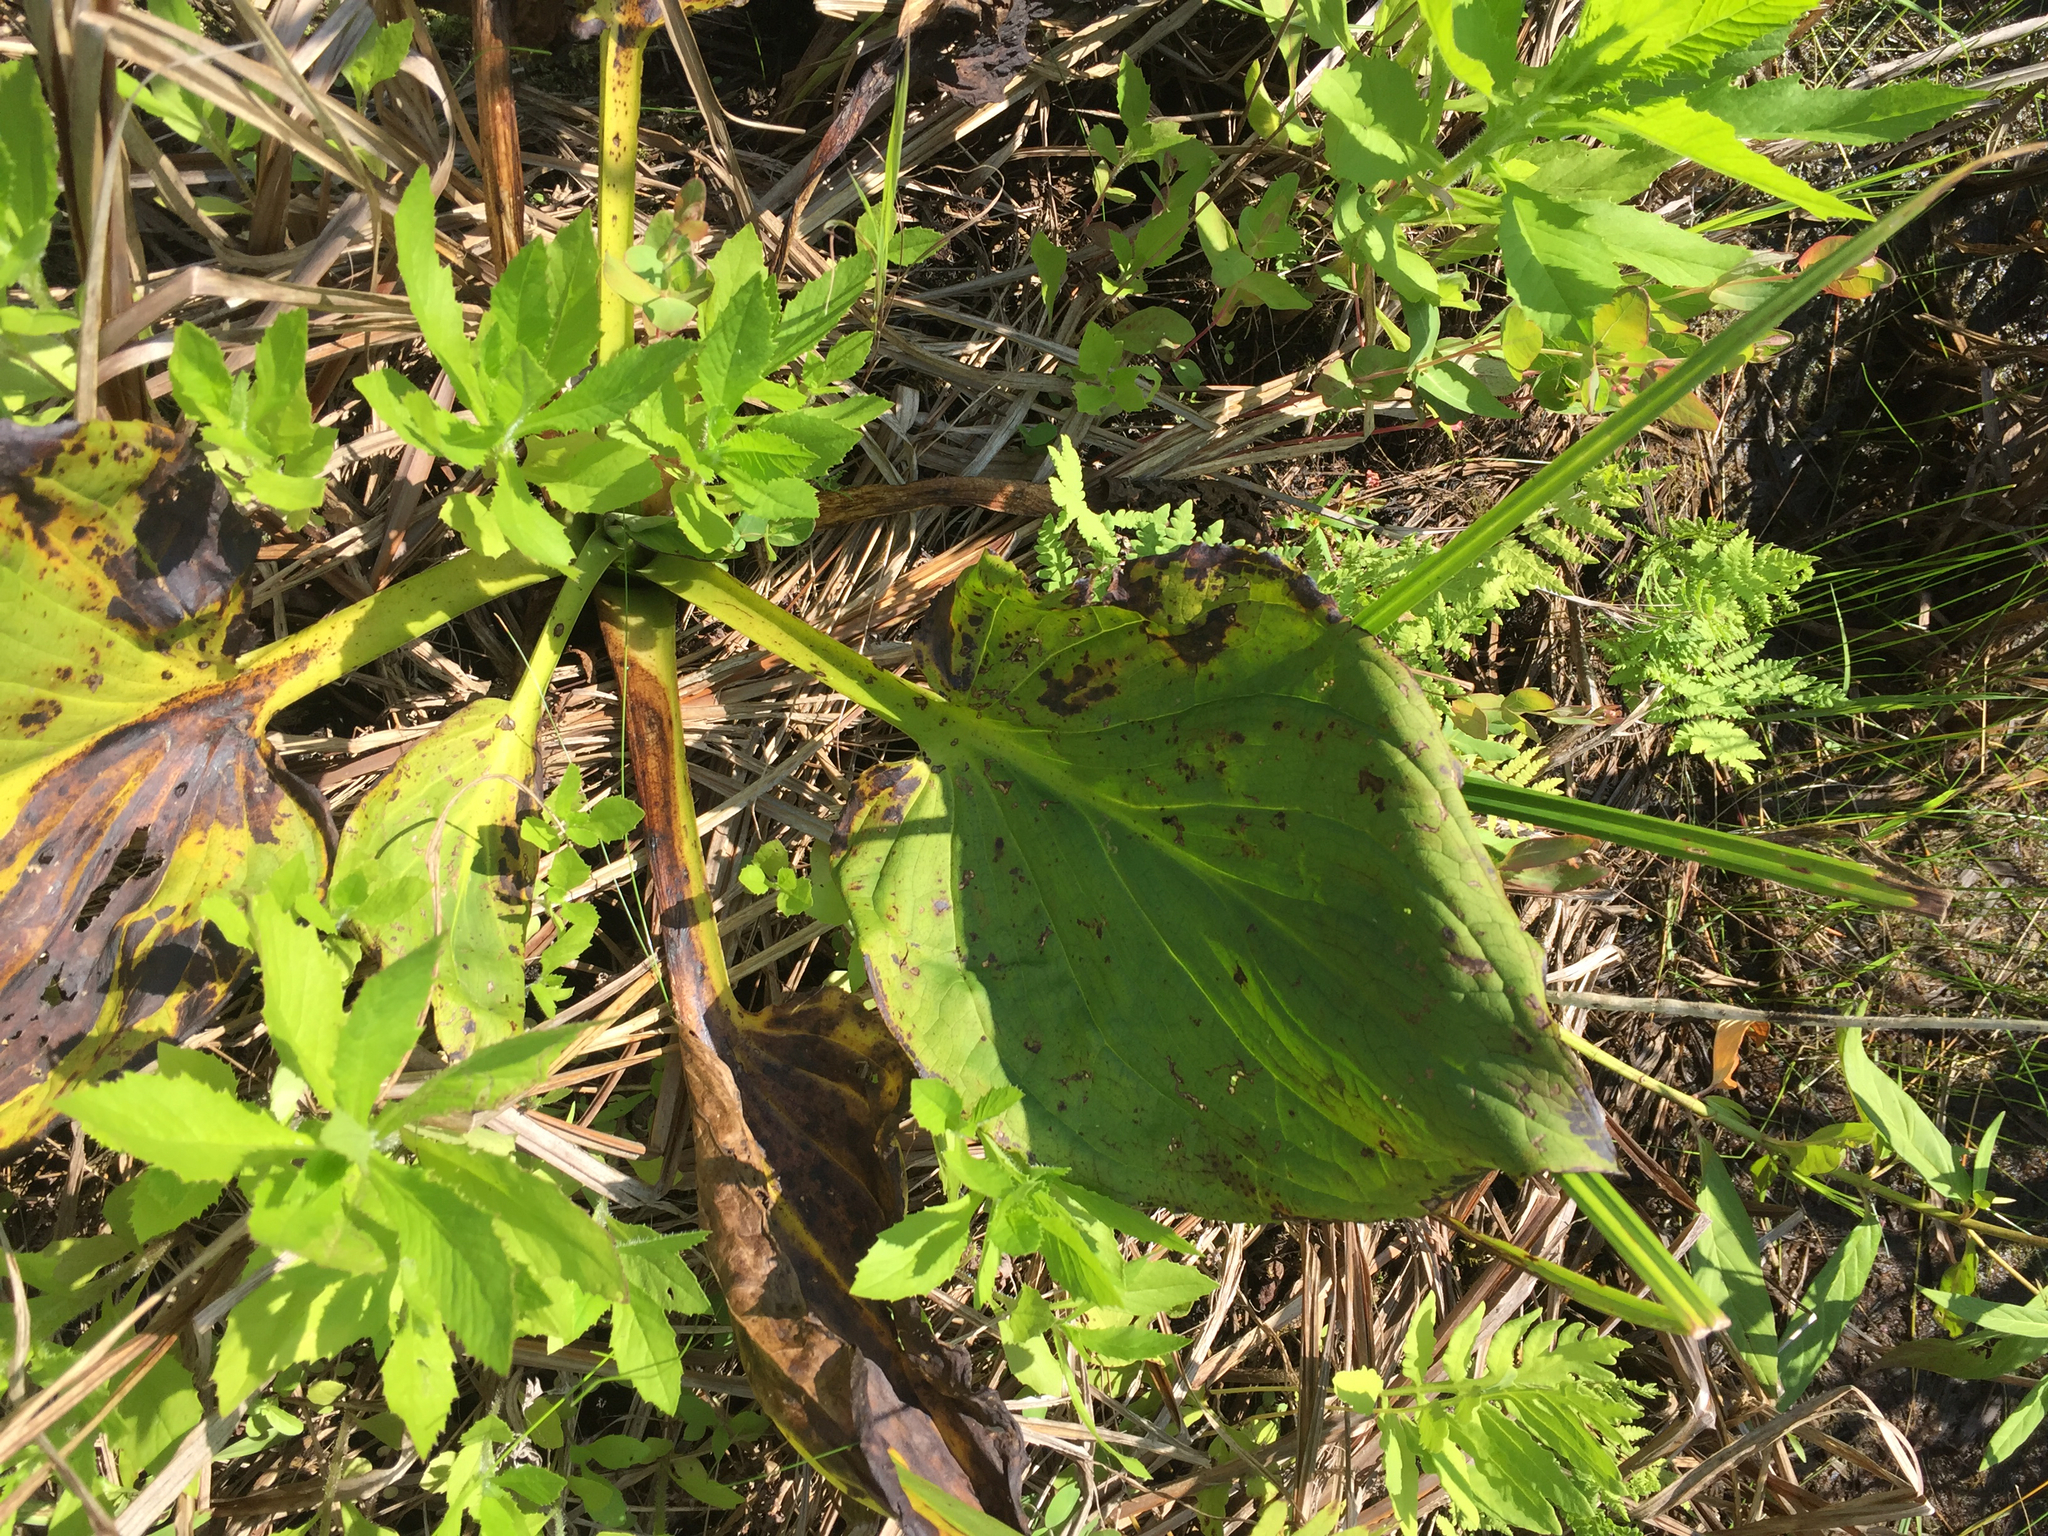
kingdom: Plantae
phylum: Tracheophyta
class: Liliopsida
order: Alismatales
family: Araceae
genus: Symplocarpus
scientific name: Symplocarpus foetidus
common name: Eastern skunk cabbage
